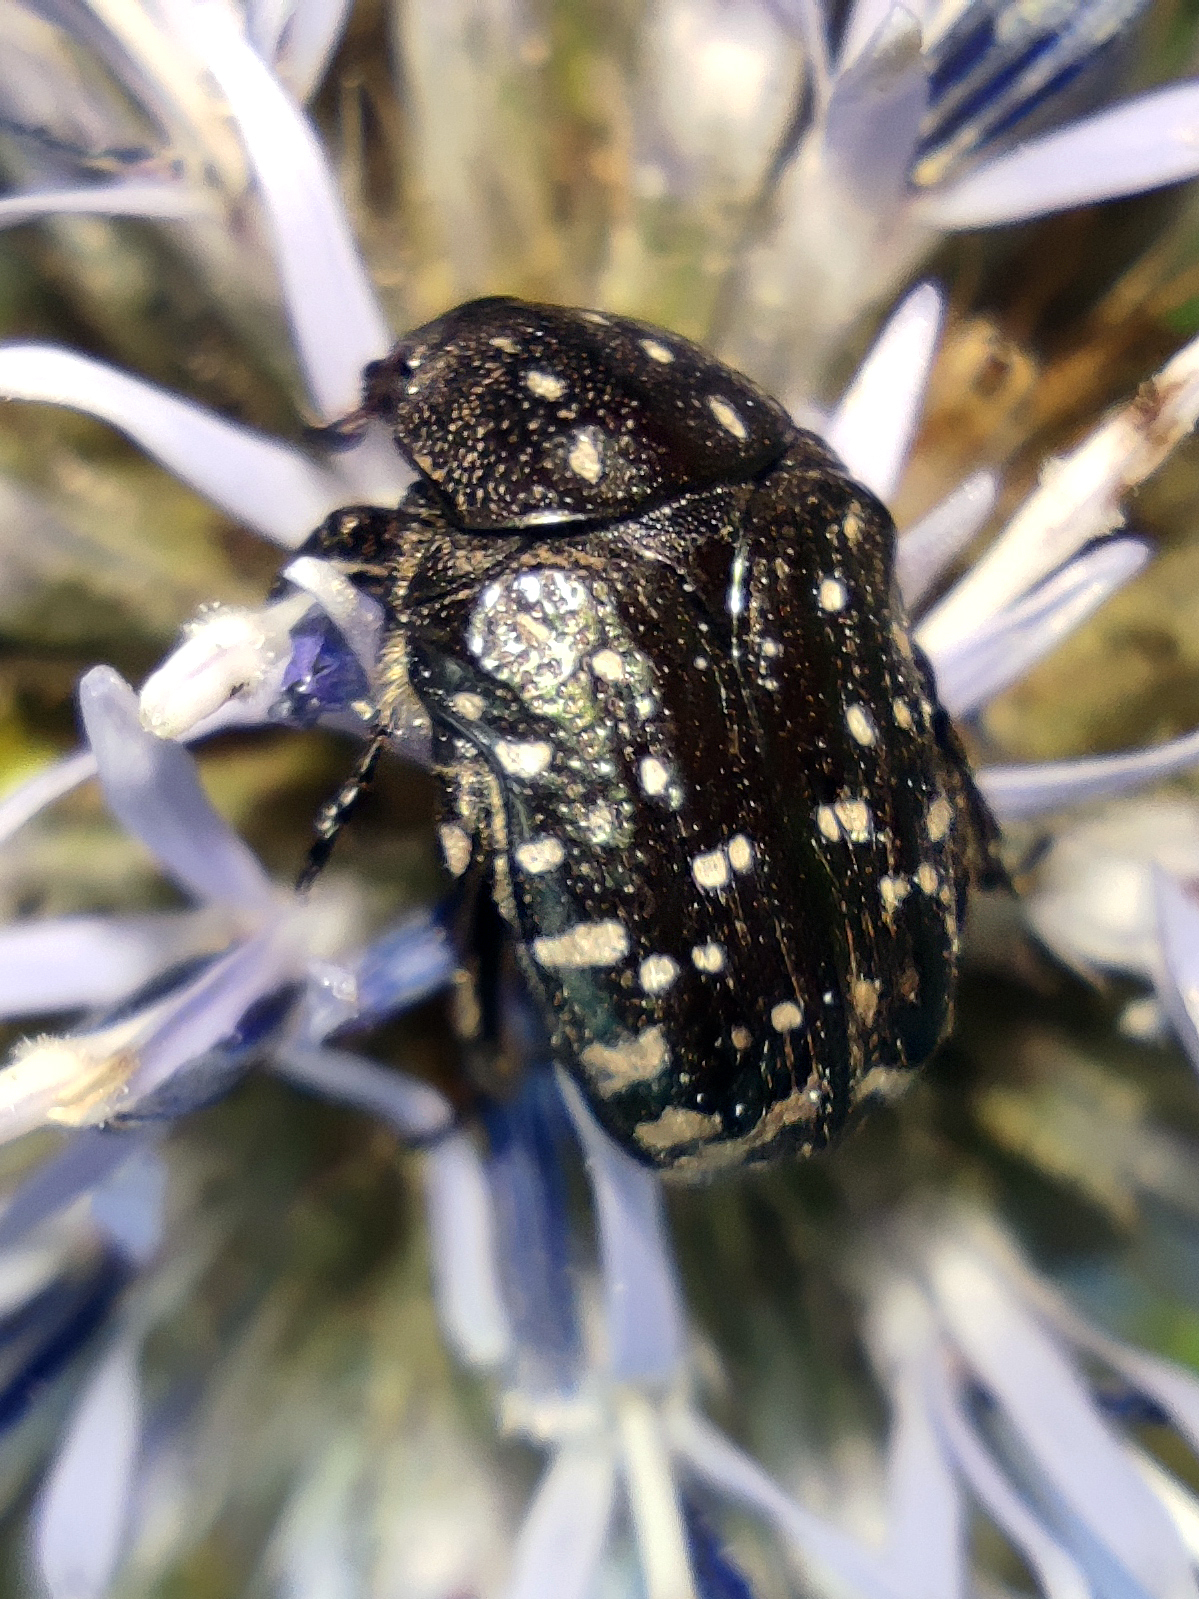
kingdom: Animalia
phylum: Arthropoda
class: Insecta
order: Coleoptera
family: Scarabaeidae
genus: Oxythyrea
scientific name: Oxythyrea funesta
